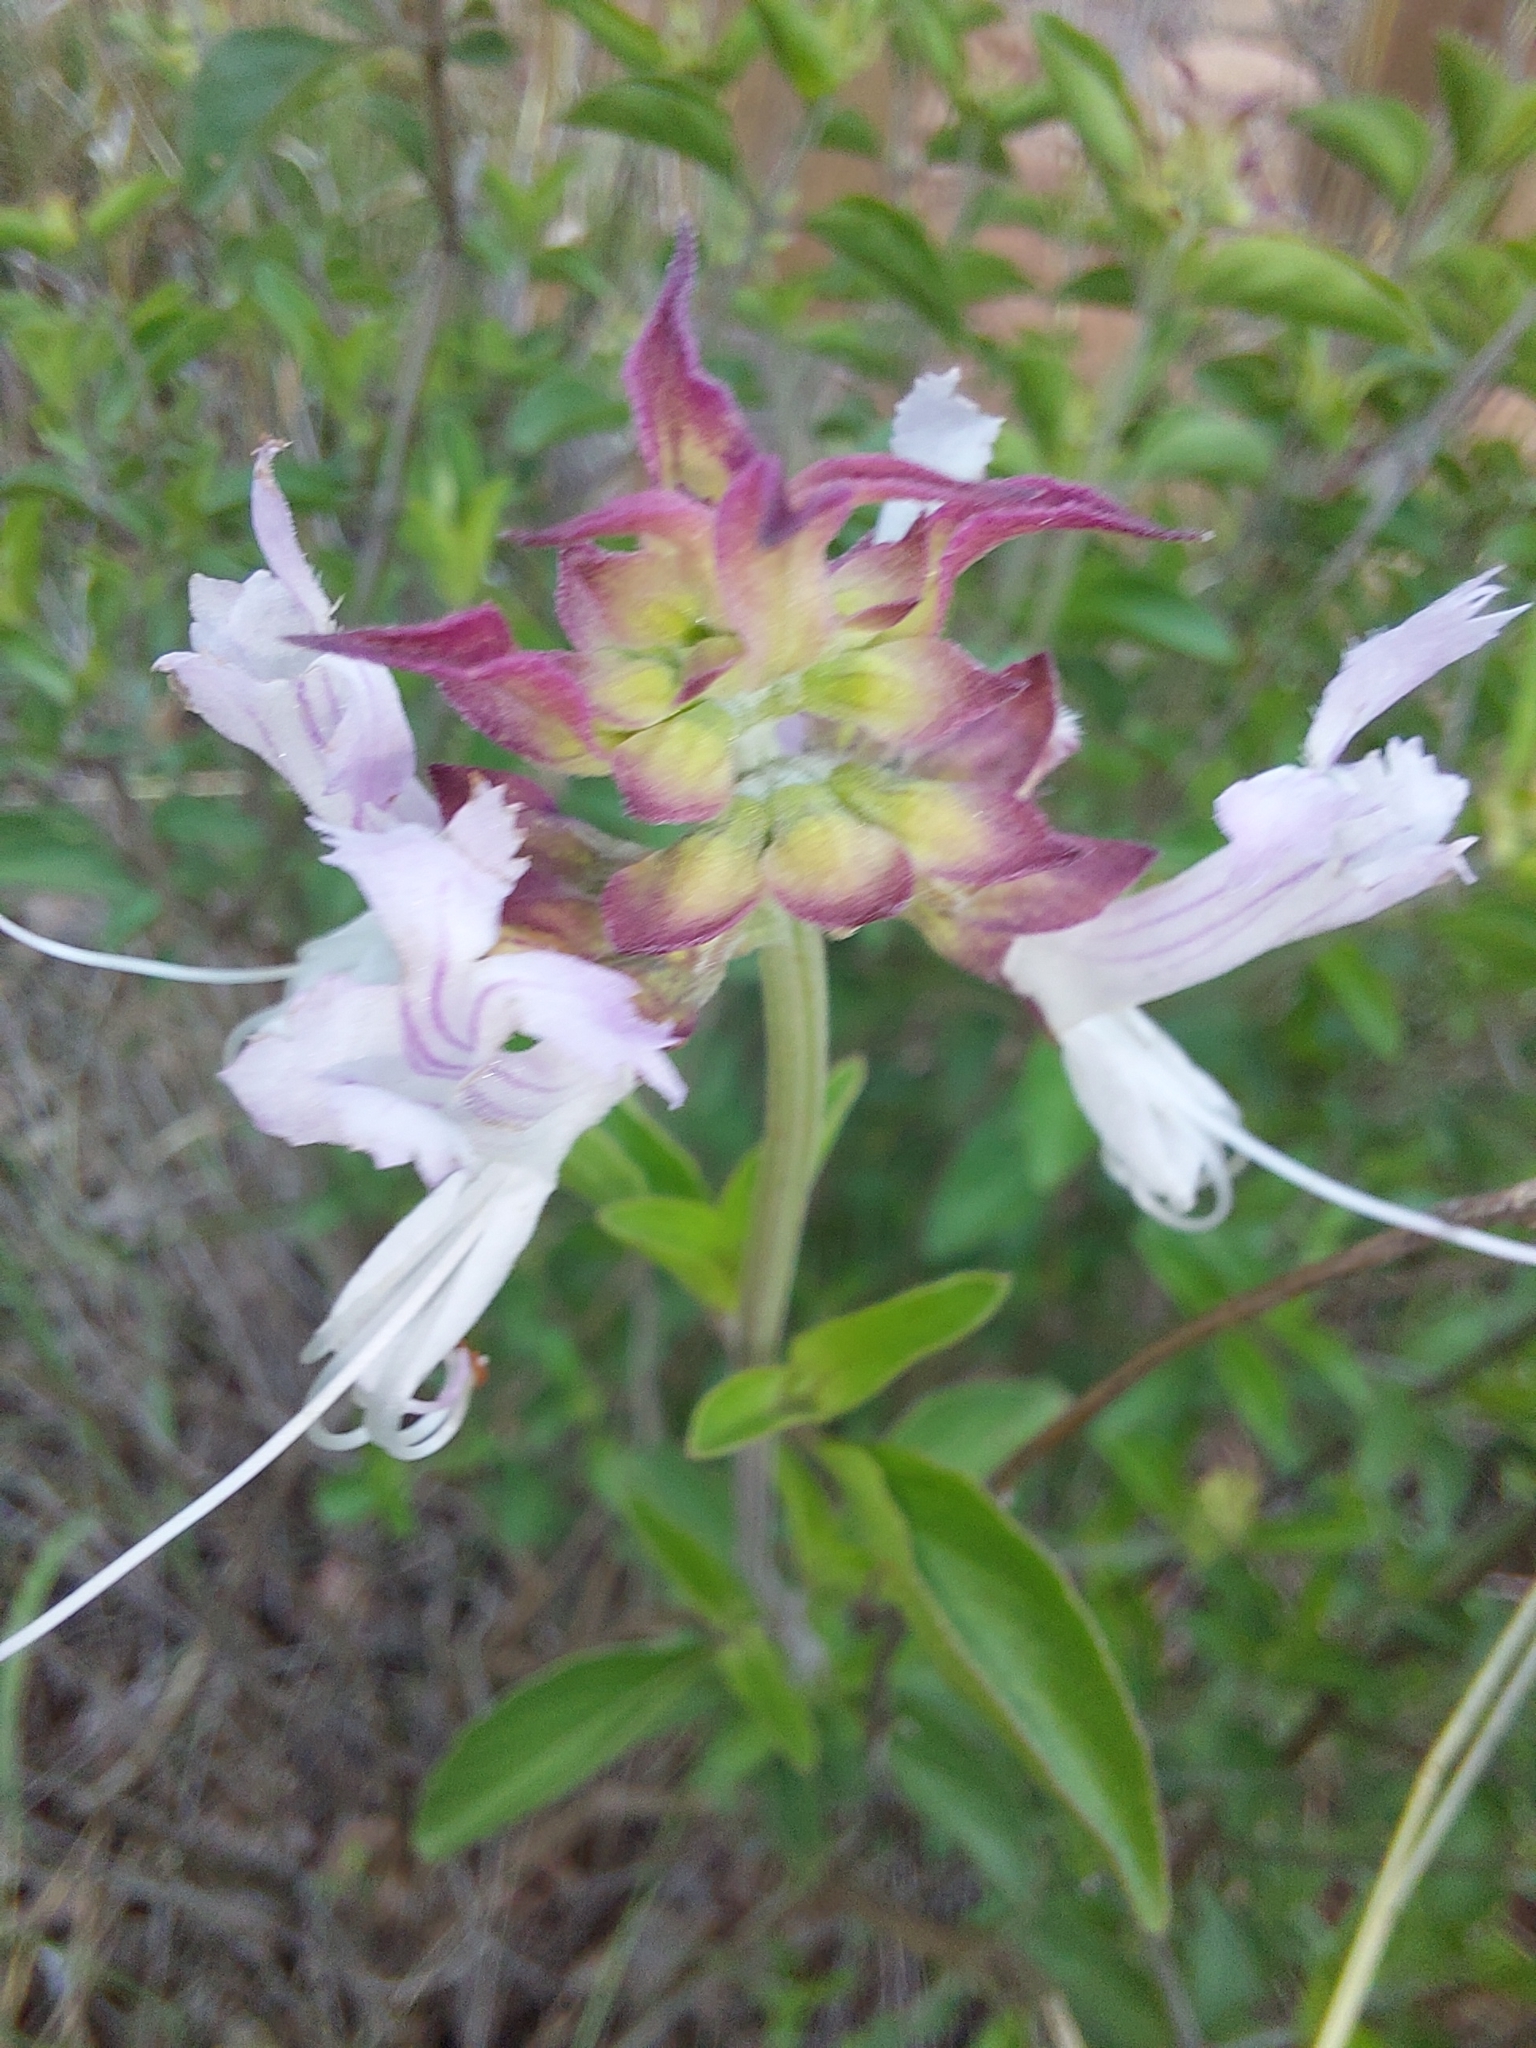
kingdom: Plantae
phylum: Tracheophyta
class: Magnoliopsida
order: Lamiales
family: Lamiaceae
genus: Ocimum
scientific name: Ocimum obovatum
